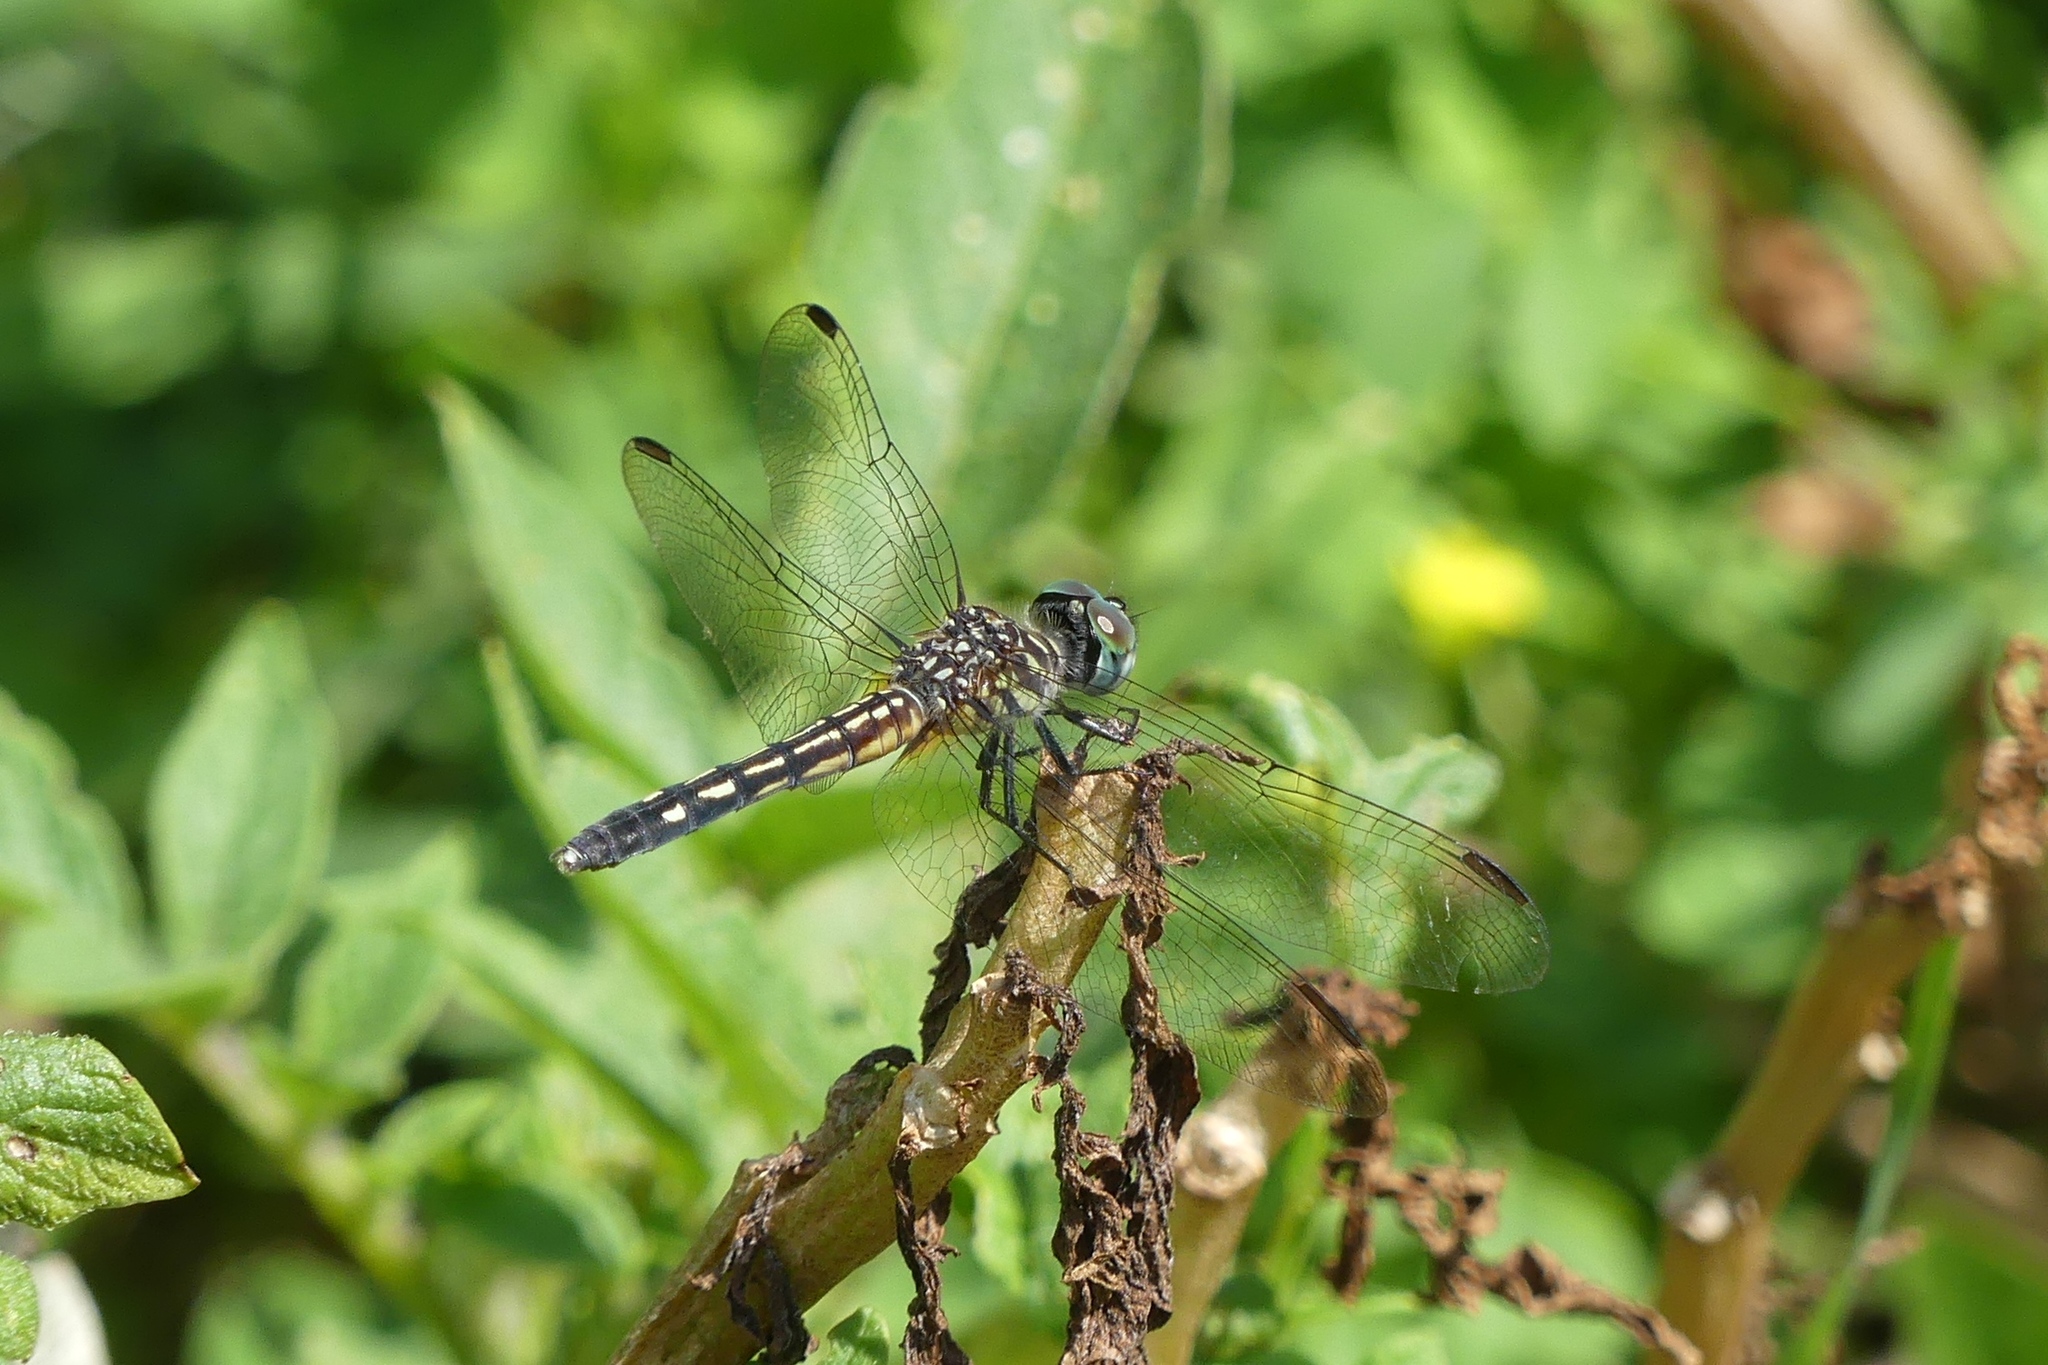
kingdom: Animalia
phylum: Arthropoda
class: Insecta
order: Odonata
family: Libellulidae
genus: Pachydiplax
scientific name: Pachydiplax longipennis
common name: Blue dasher
